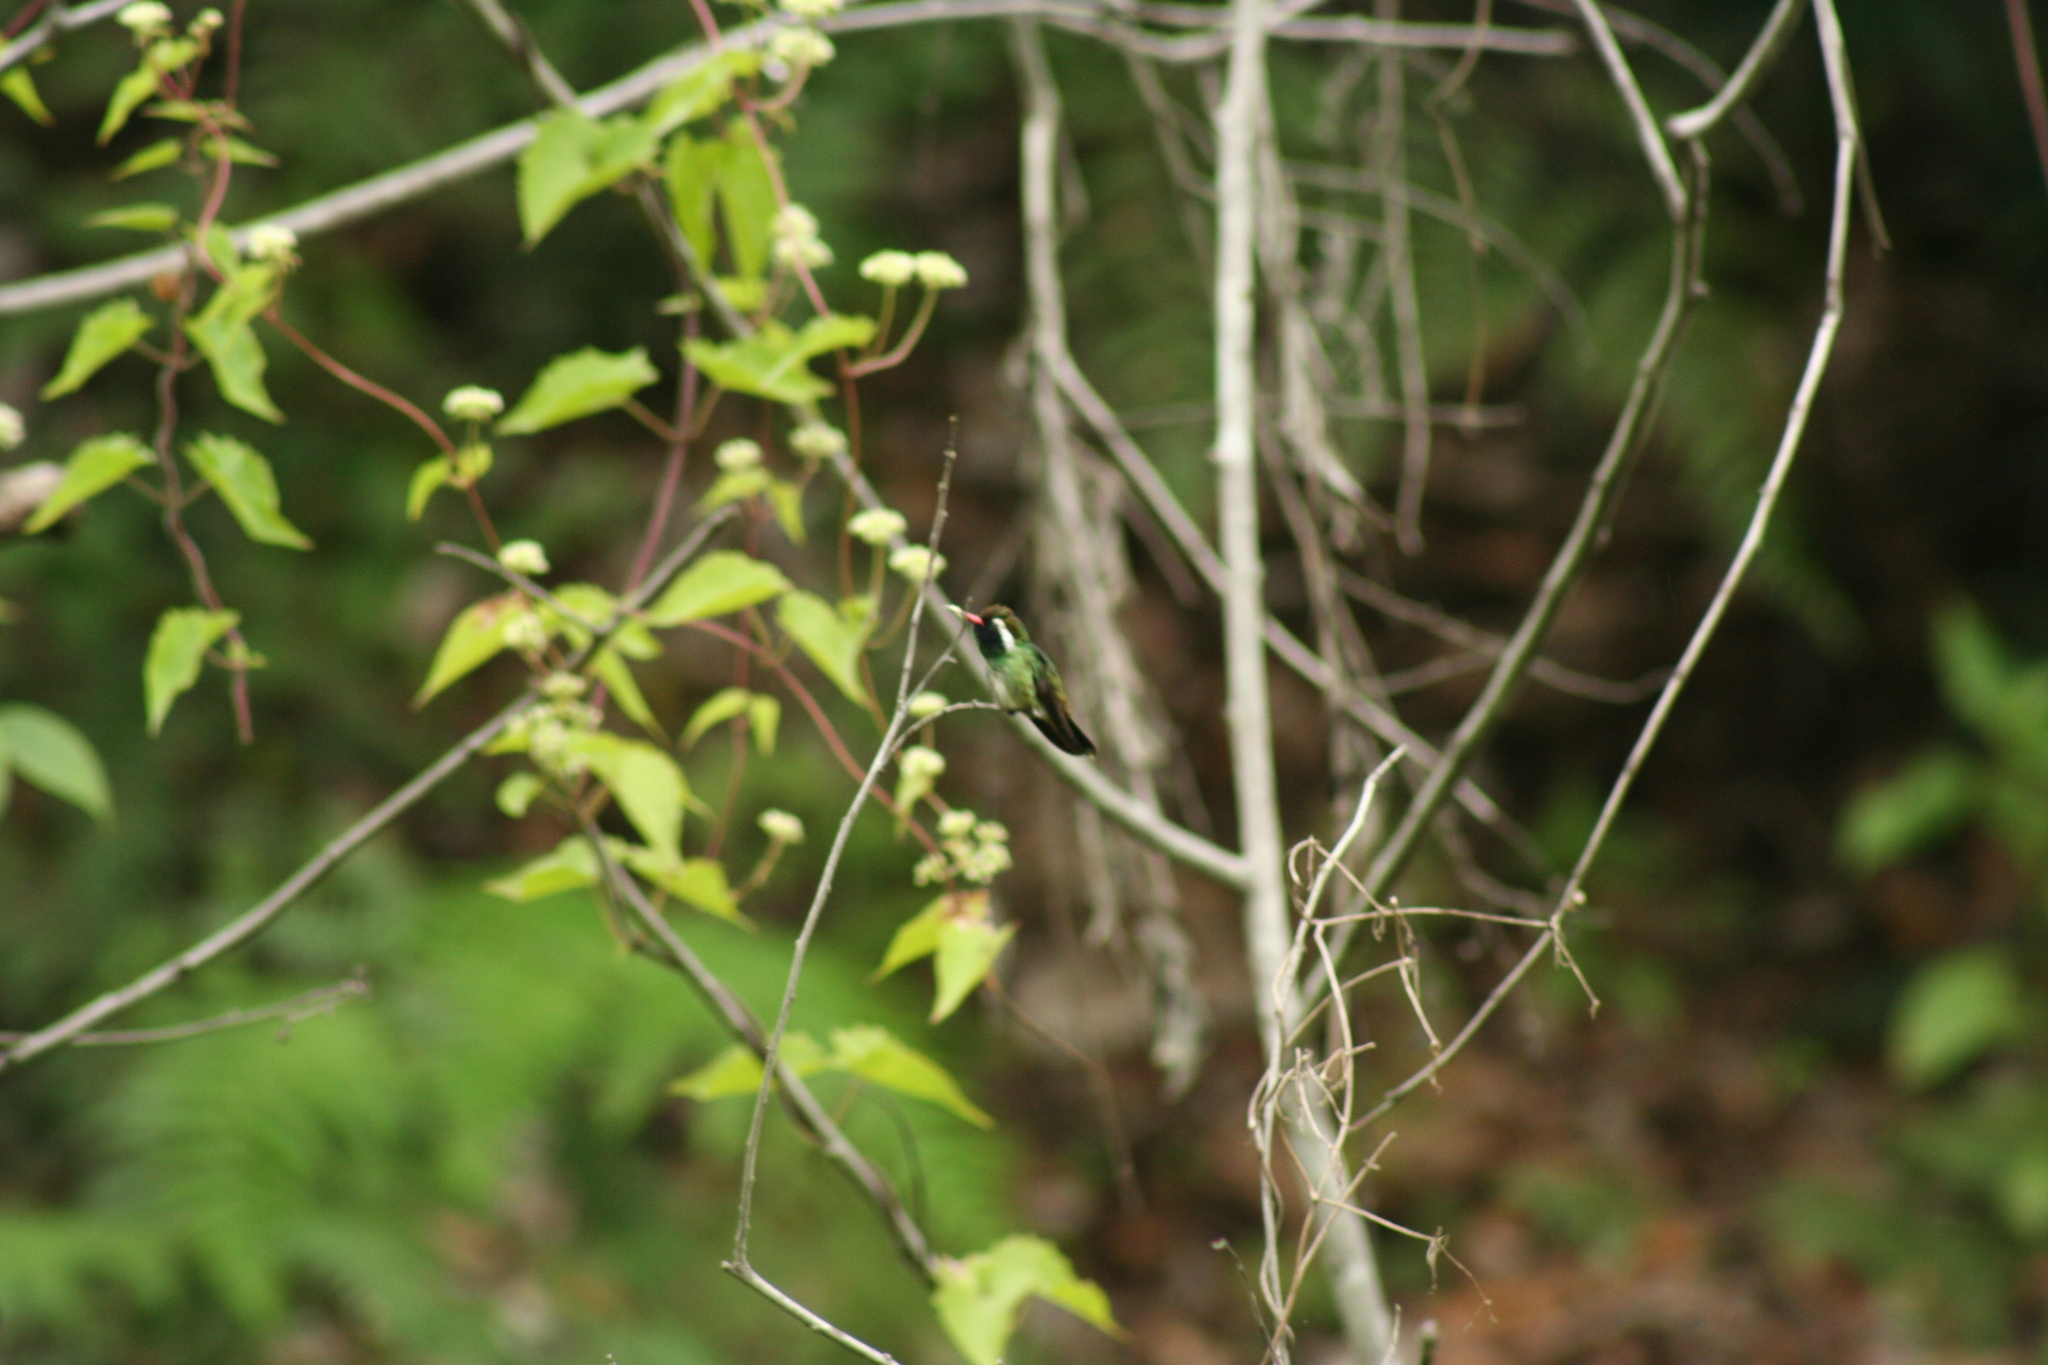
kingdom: Animalia
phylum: Chordata
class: Aves
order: Apodiformes
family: Trochilidae
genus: Basilinna
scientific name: Basilinna leucotis
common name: White-eared hummingbird
